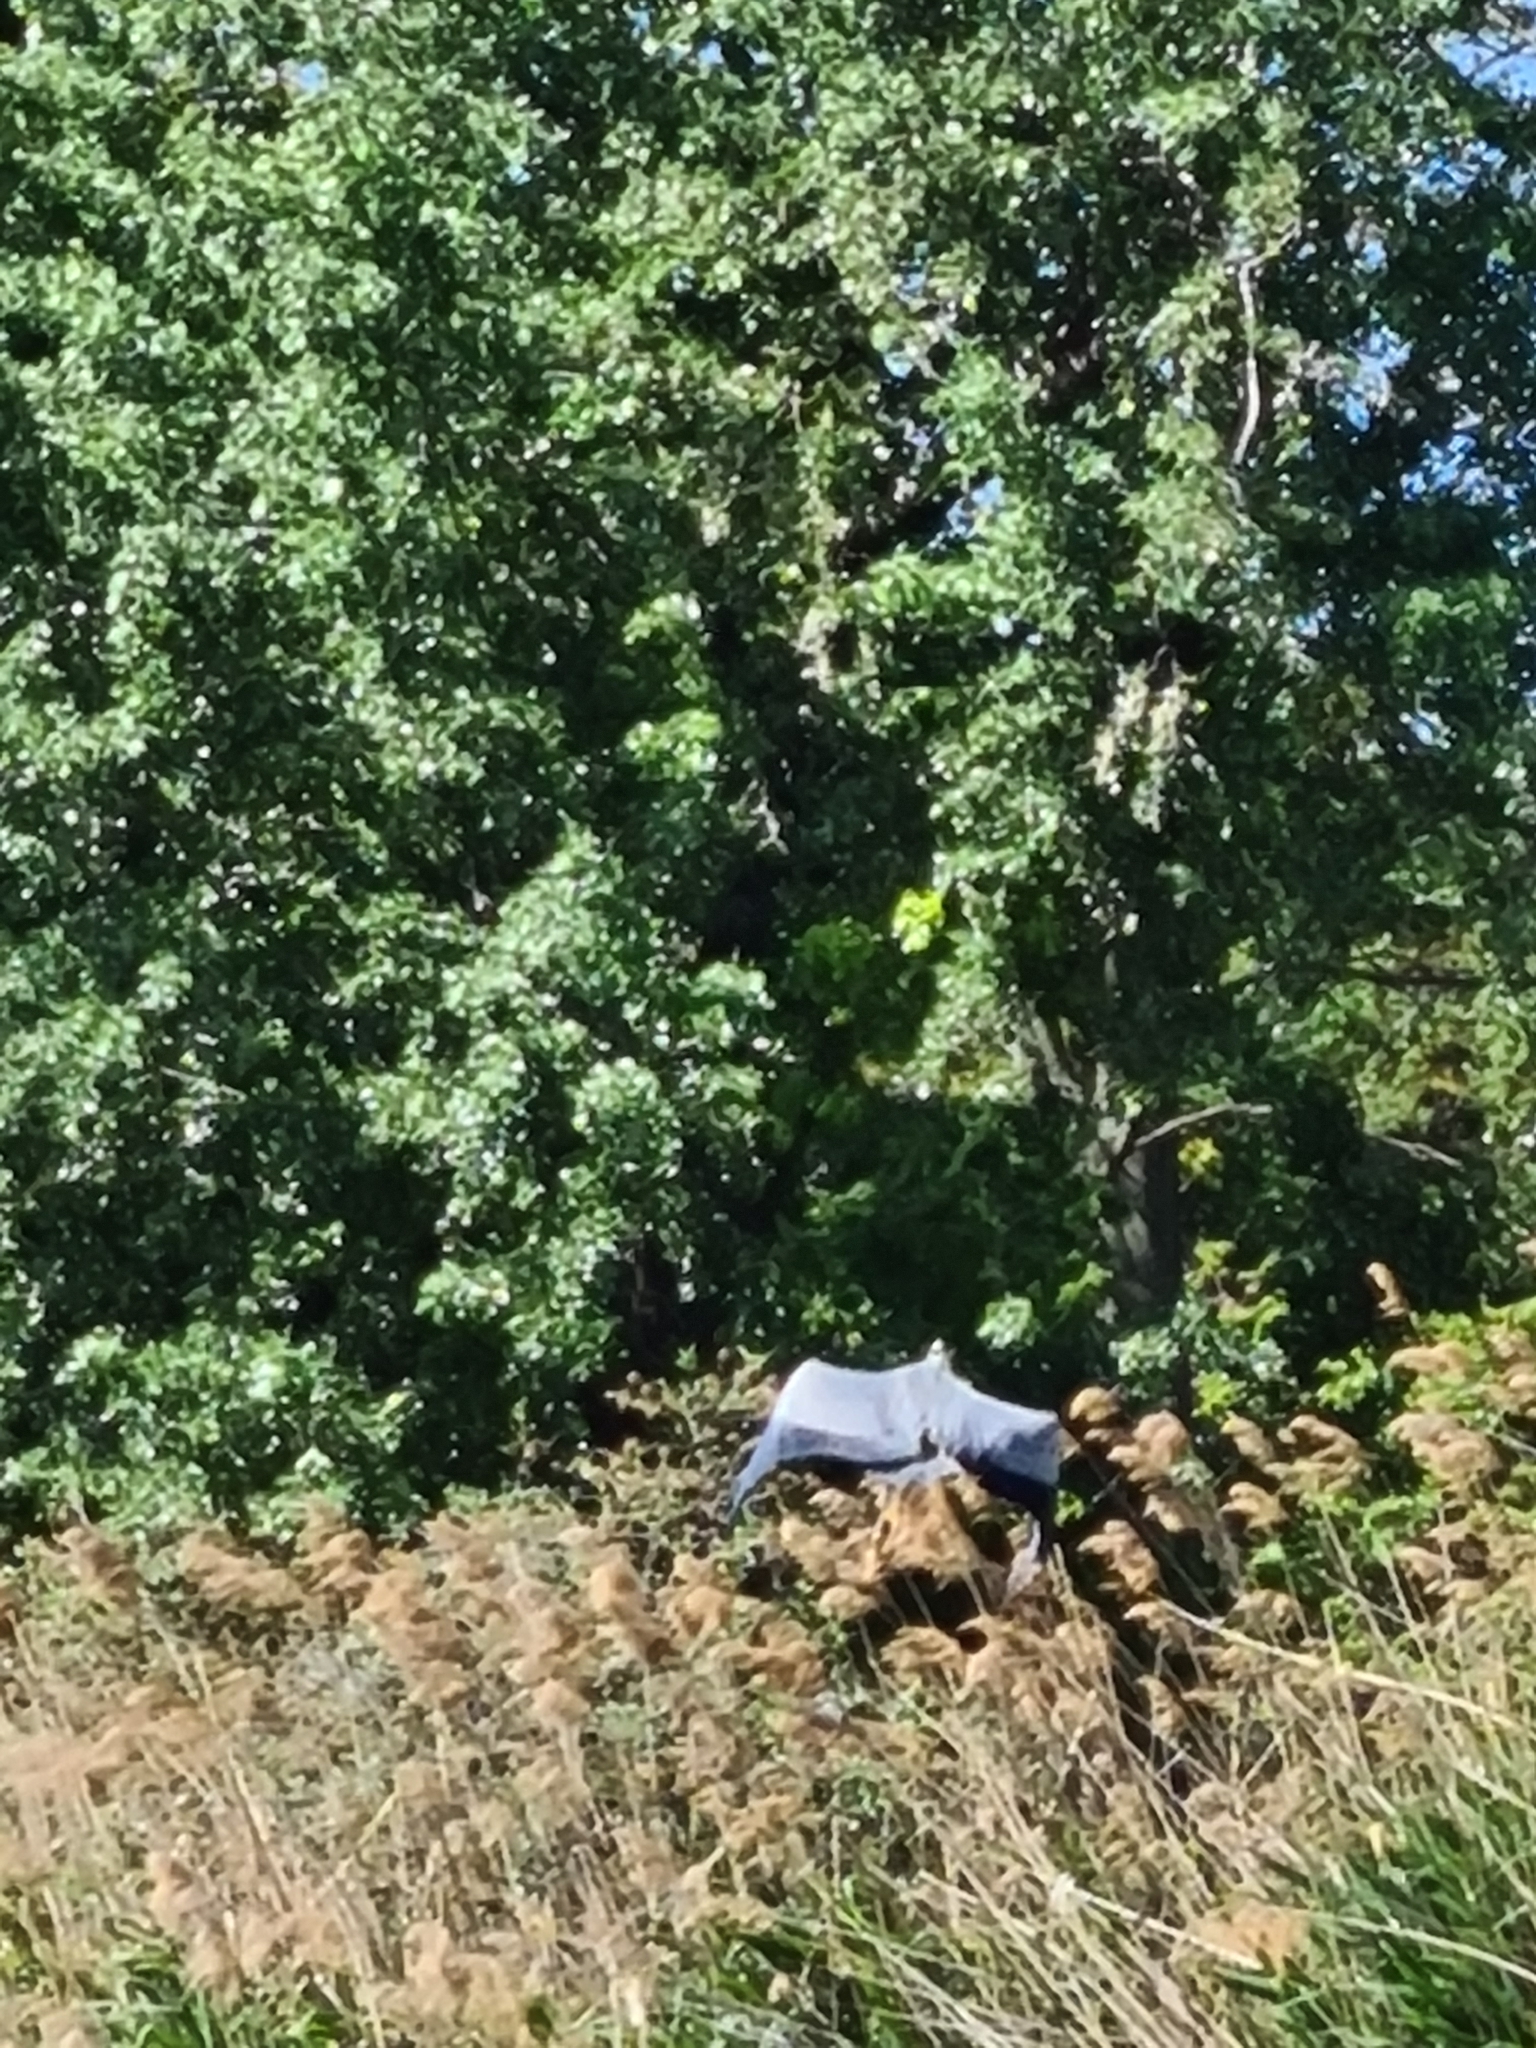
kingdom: Animalia
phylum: Chordata
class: Aves
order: Pelecaniformes
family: Ardeidae
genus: Ardea
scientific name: Ardea cinerea
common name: Grey heron
